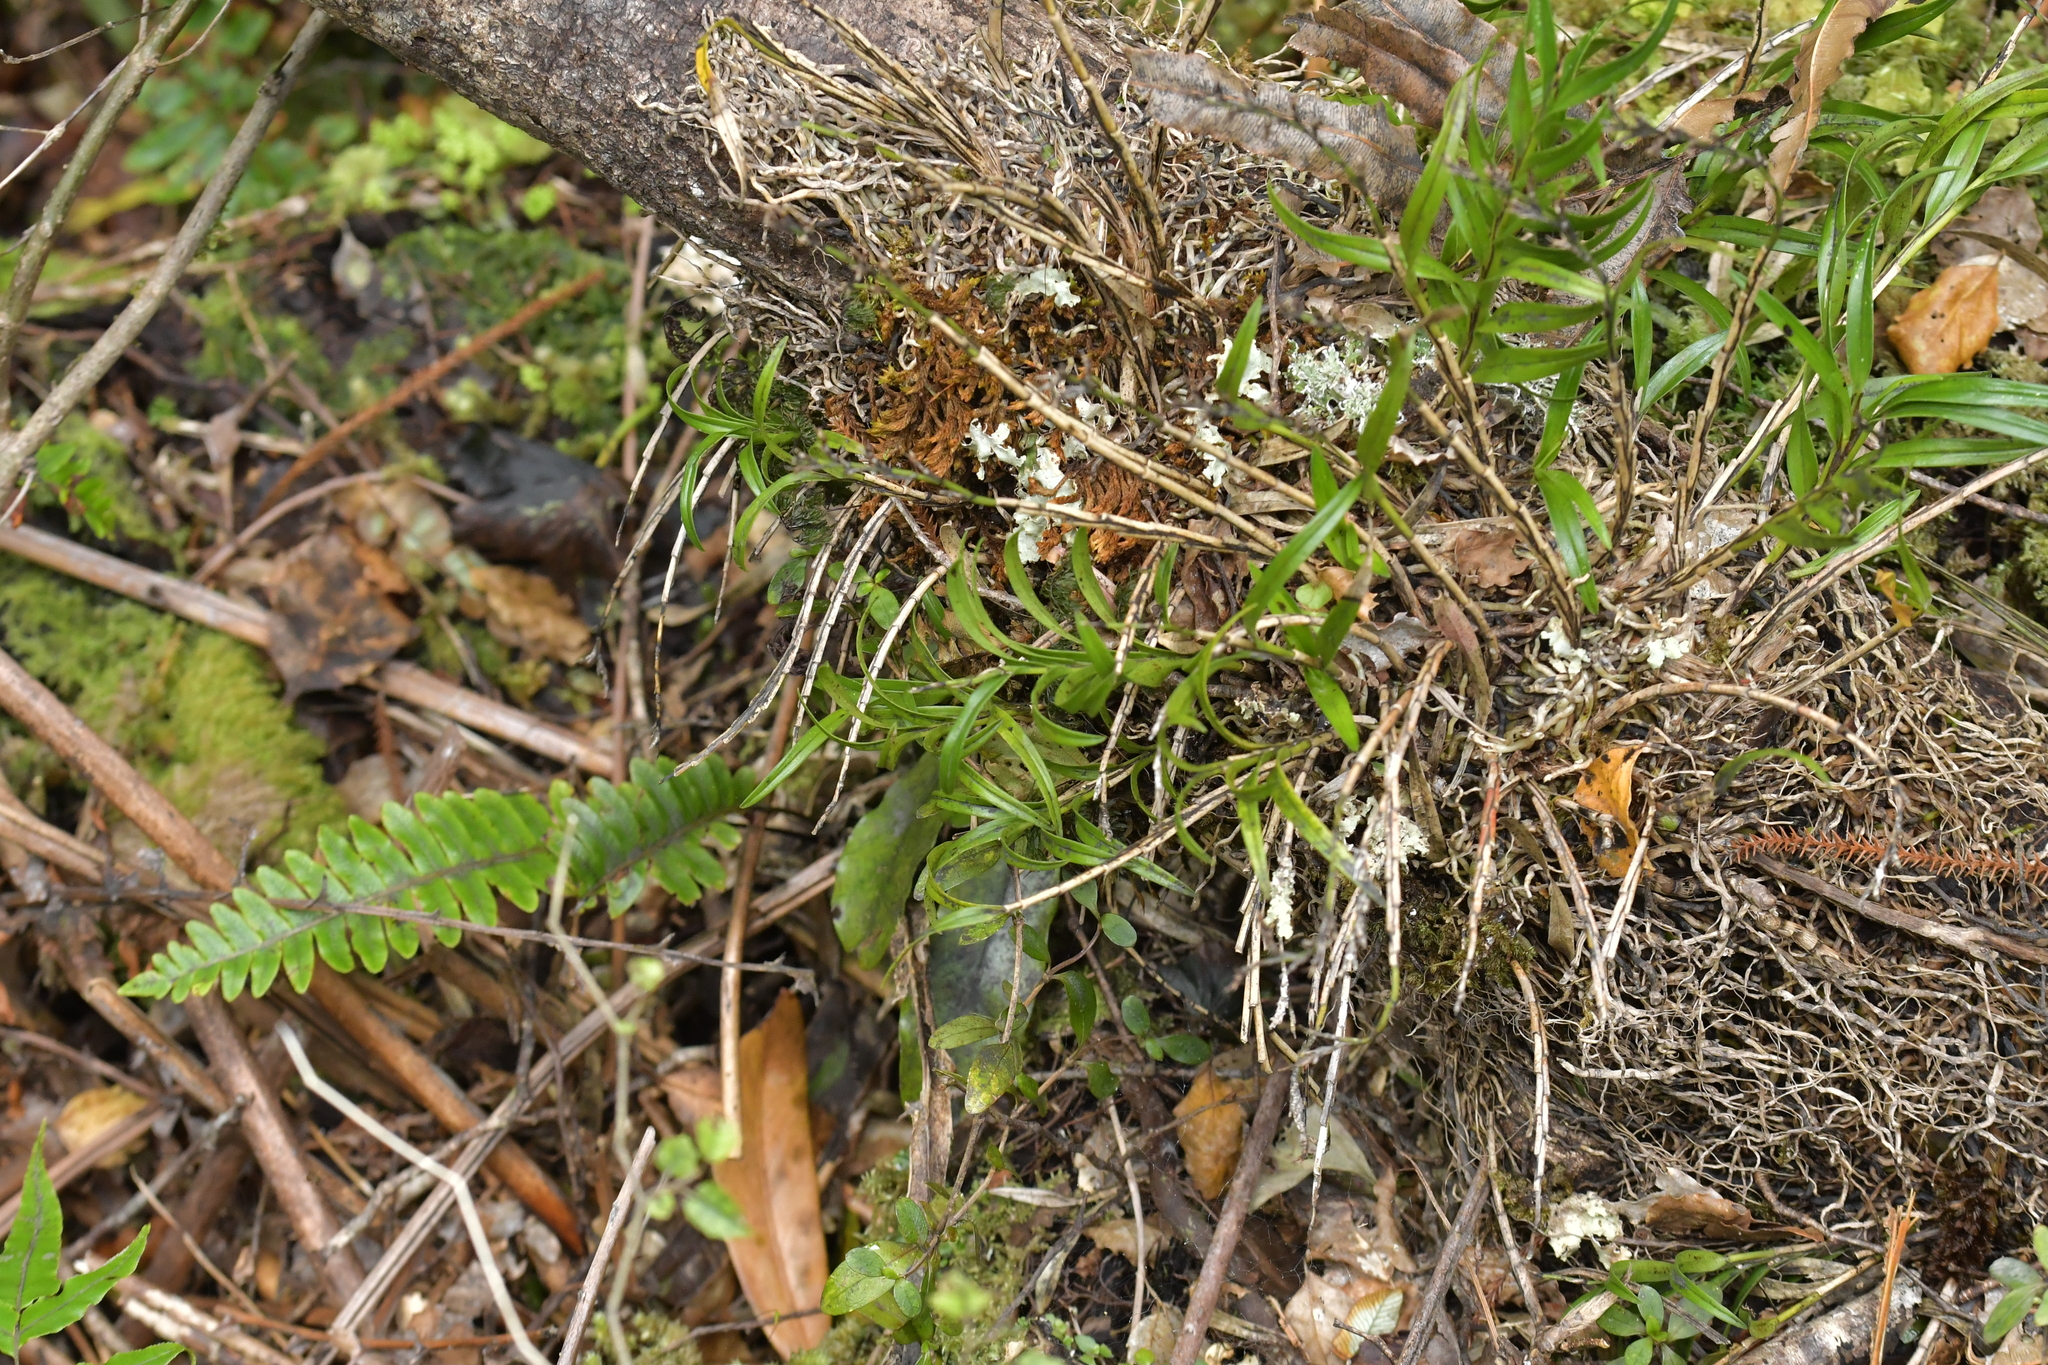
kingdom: Plantae
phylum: Tracheophyta
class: Liliopsida
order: Asparagales
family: Orchidaceae
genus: Earina
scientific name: Earina autumnalis
